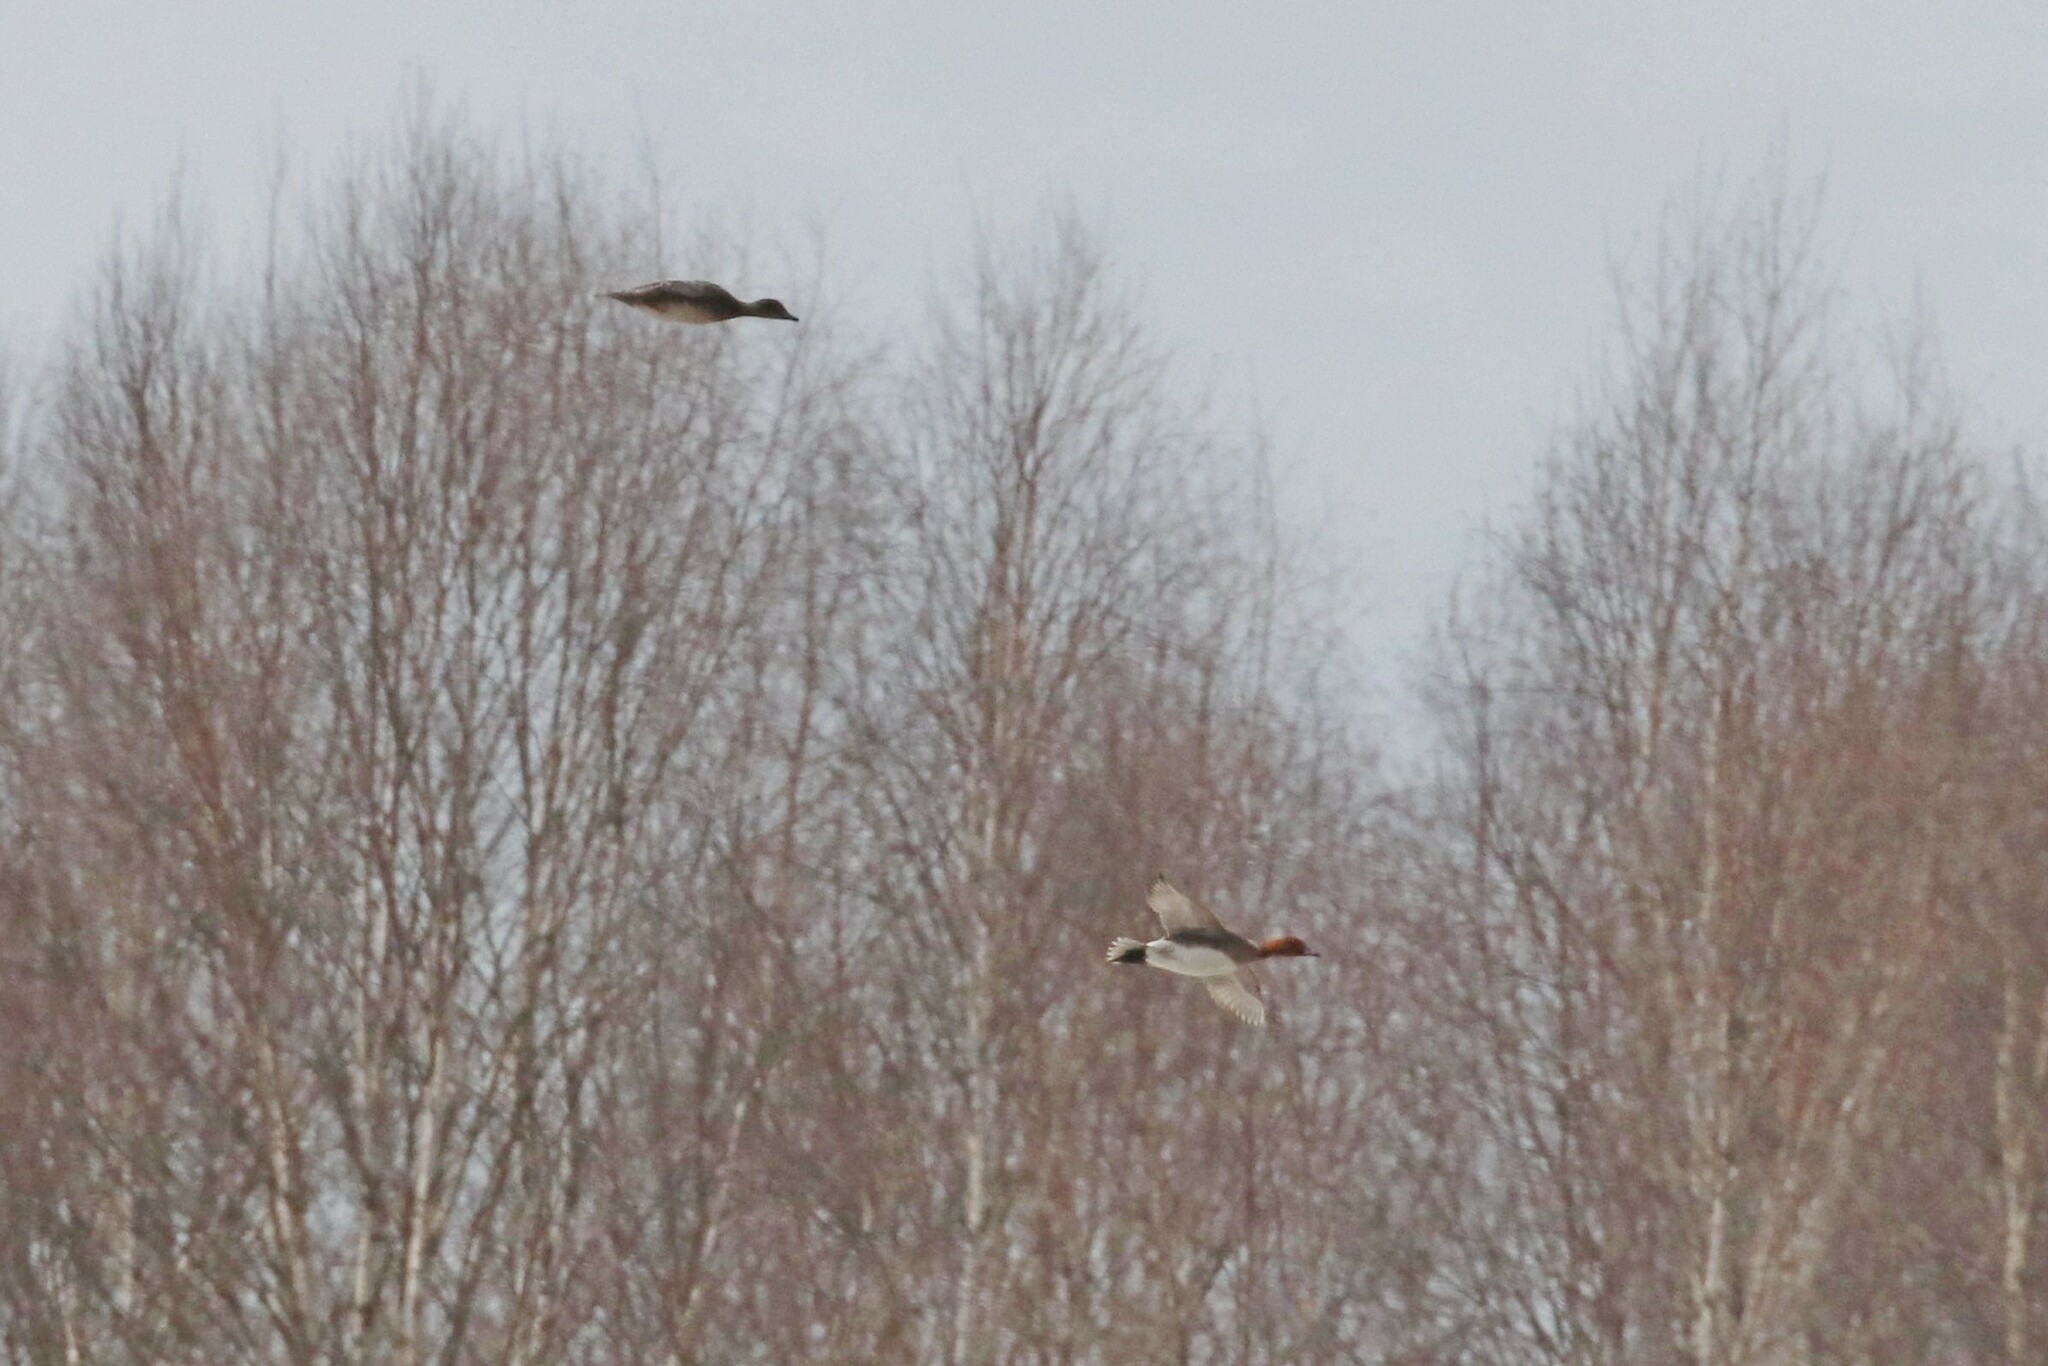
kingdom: Animalia
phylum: Chordata
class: Aves
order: Anseriformes
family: Anatidae
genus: Mareca
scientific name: Mareca penelope
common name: Eurasian wigeon
